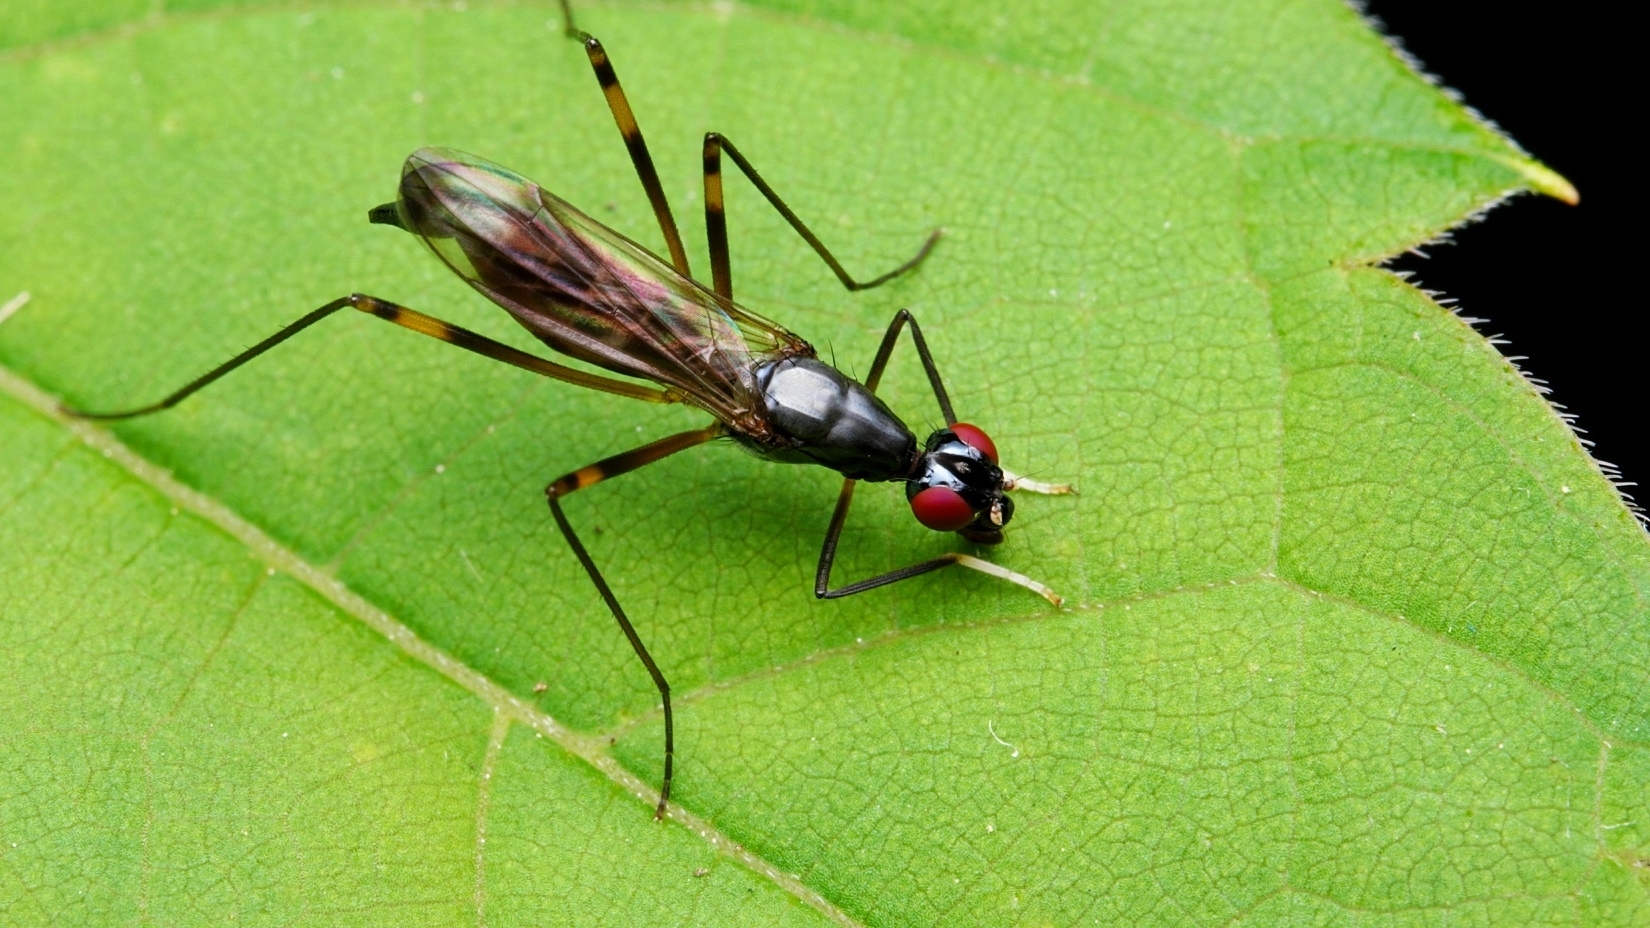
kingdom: Animalia
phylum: Arthropoda
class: Insecta
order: Diptera
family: Micropezidae
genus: Rainieria
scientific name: Rainieria antennaepes
